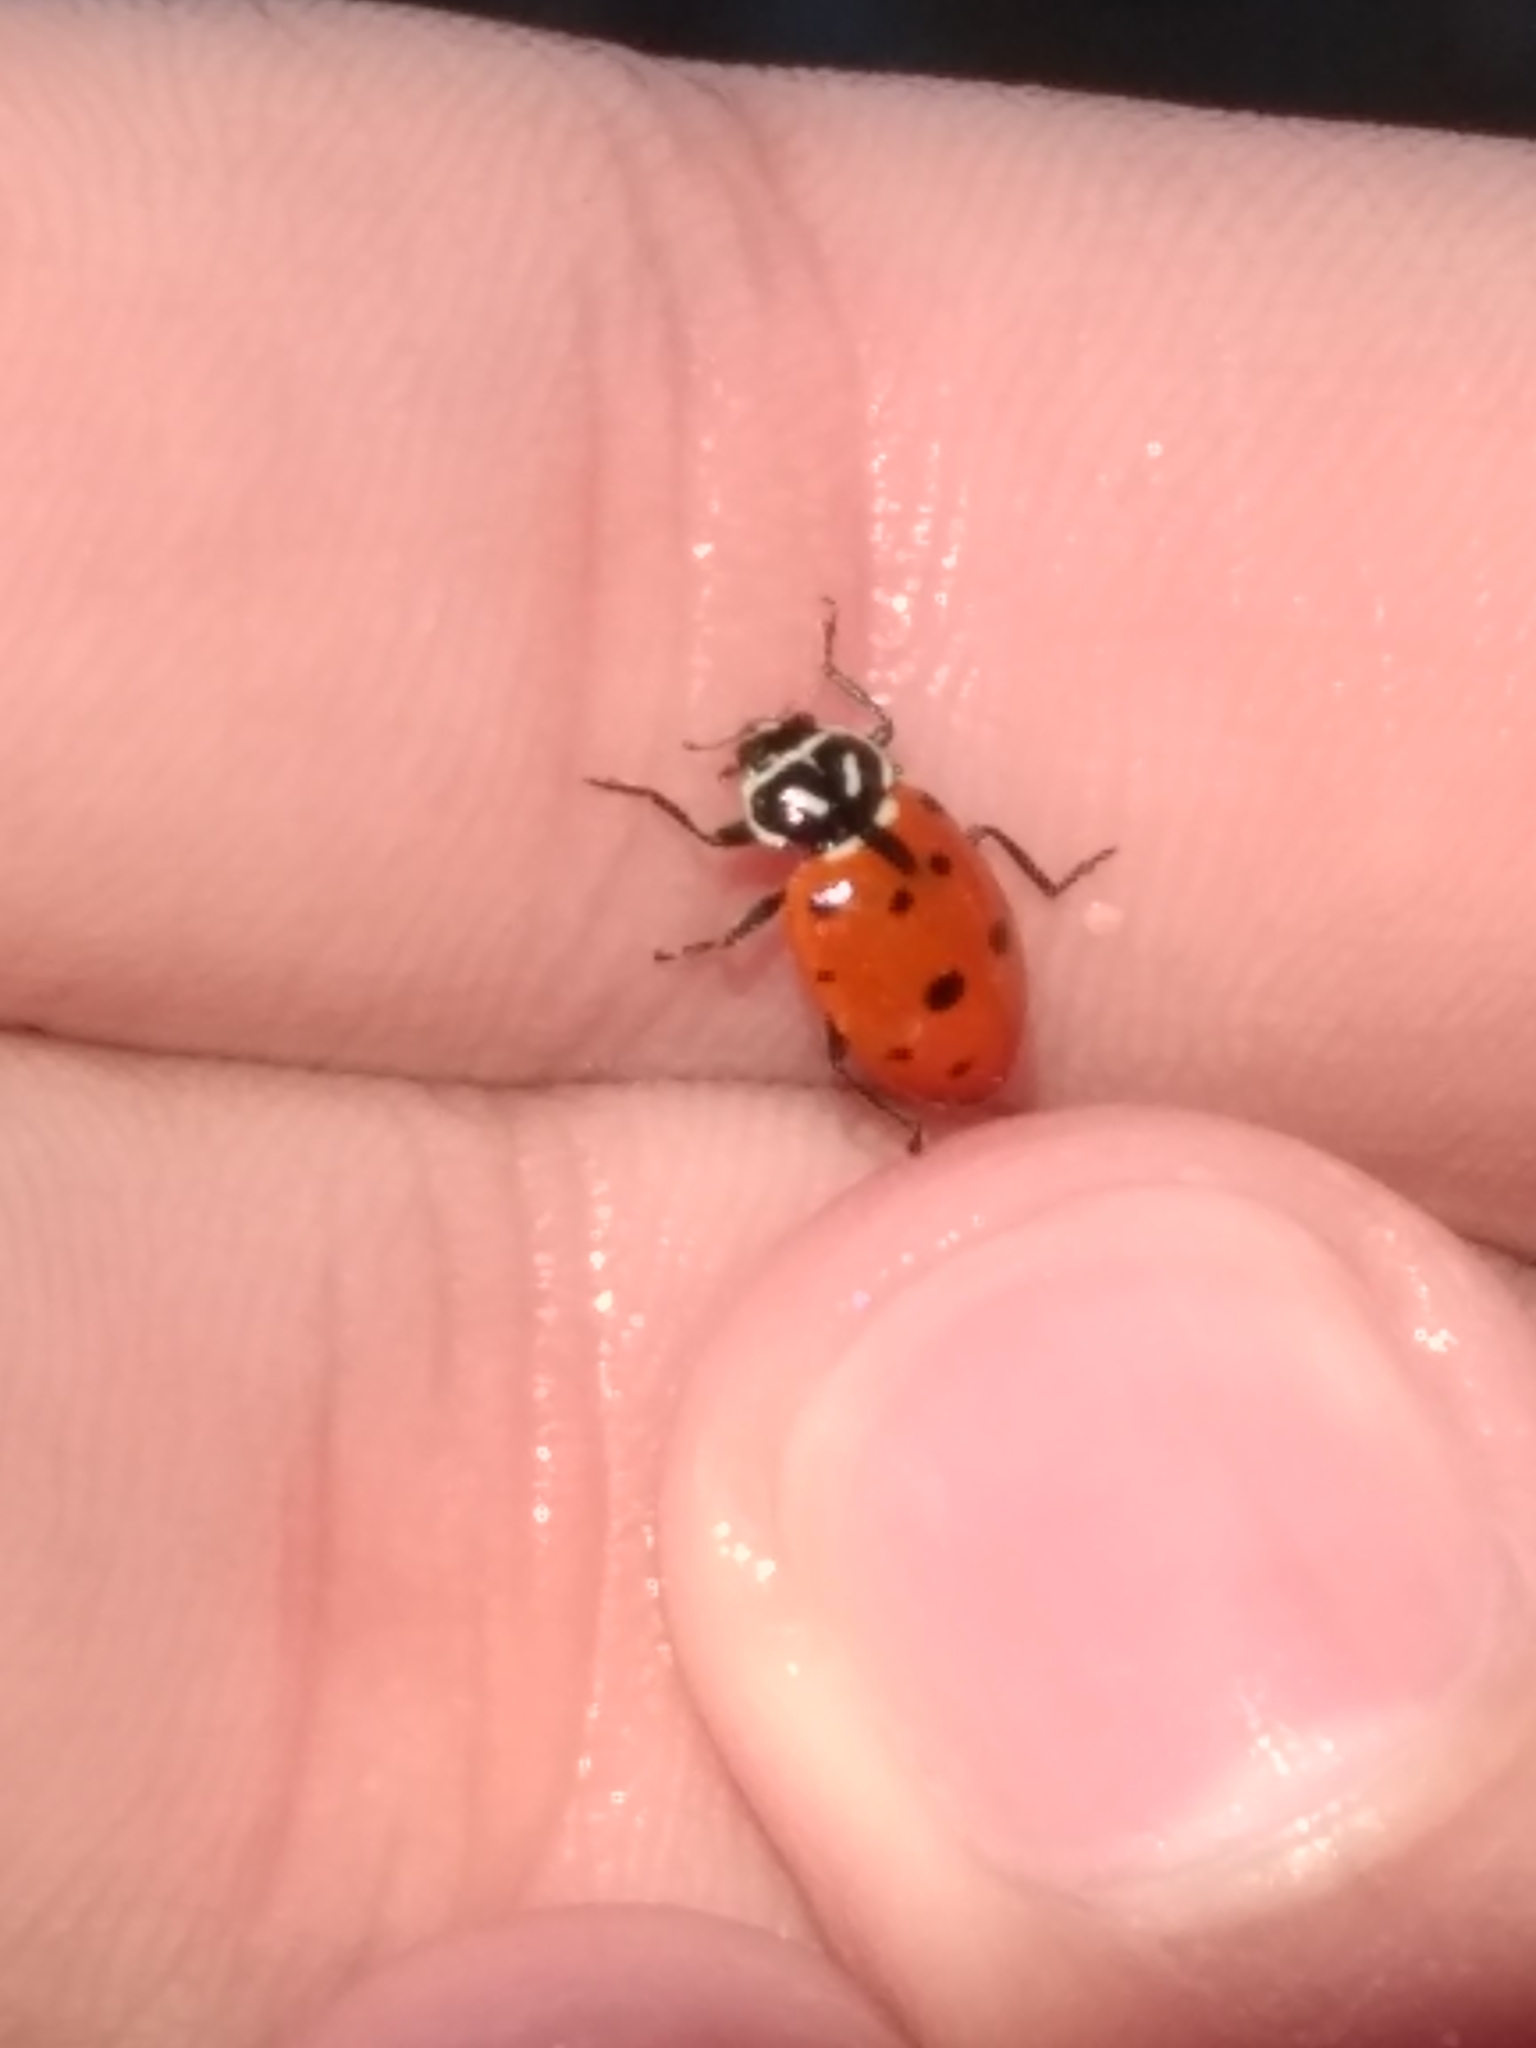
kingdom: Animalia
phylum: Arthropoda
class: Insecta
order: Coleoptera
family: Coccinellidae
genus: Hippodamia
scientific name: Hippodamia convergens
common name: Convergent lady beetle
